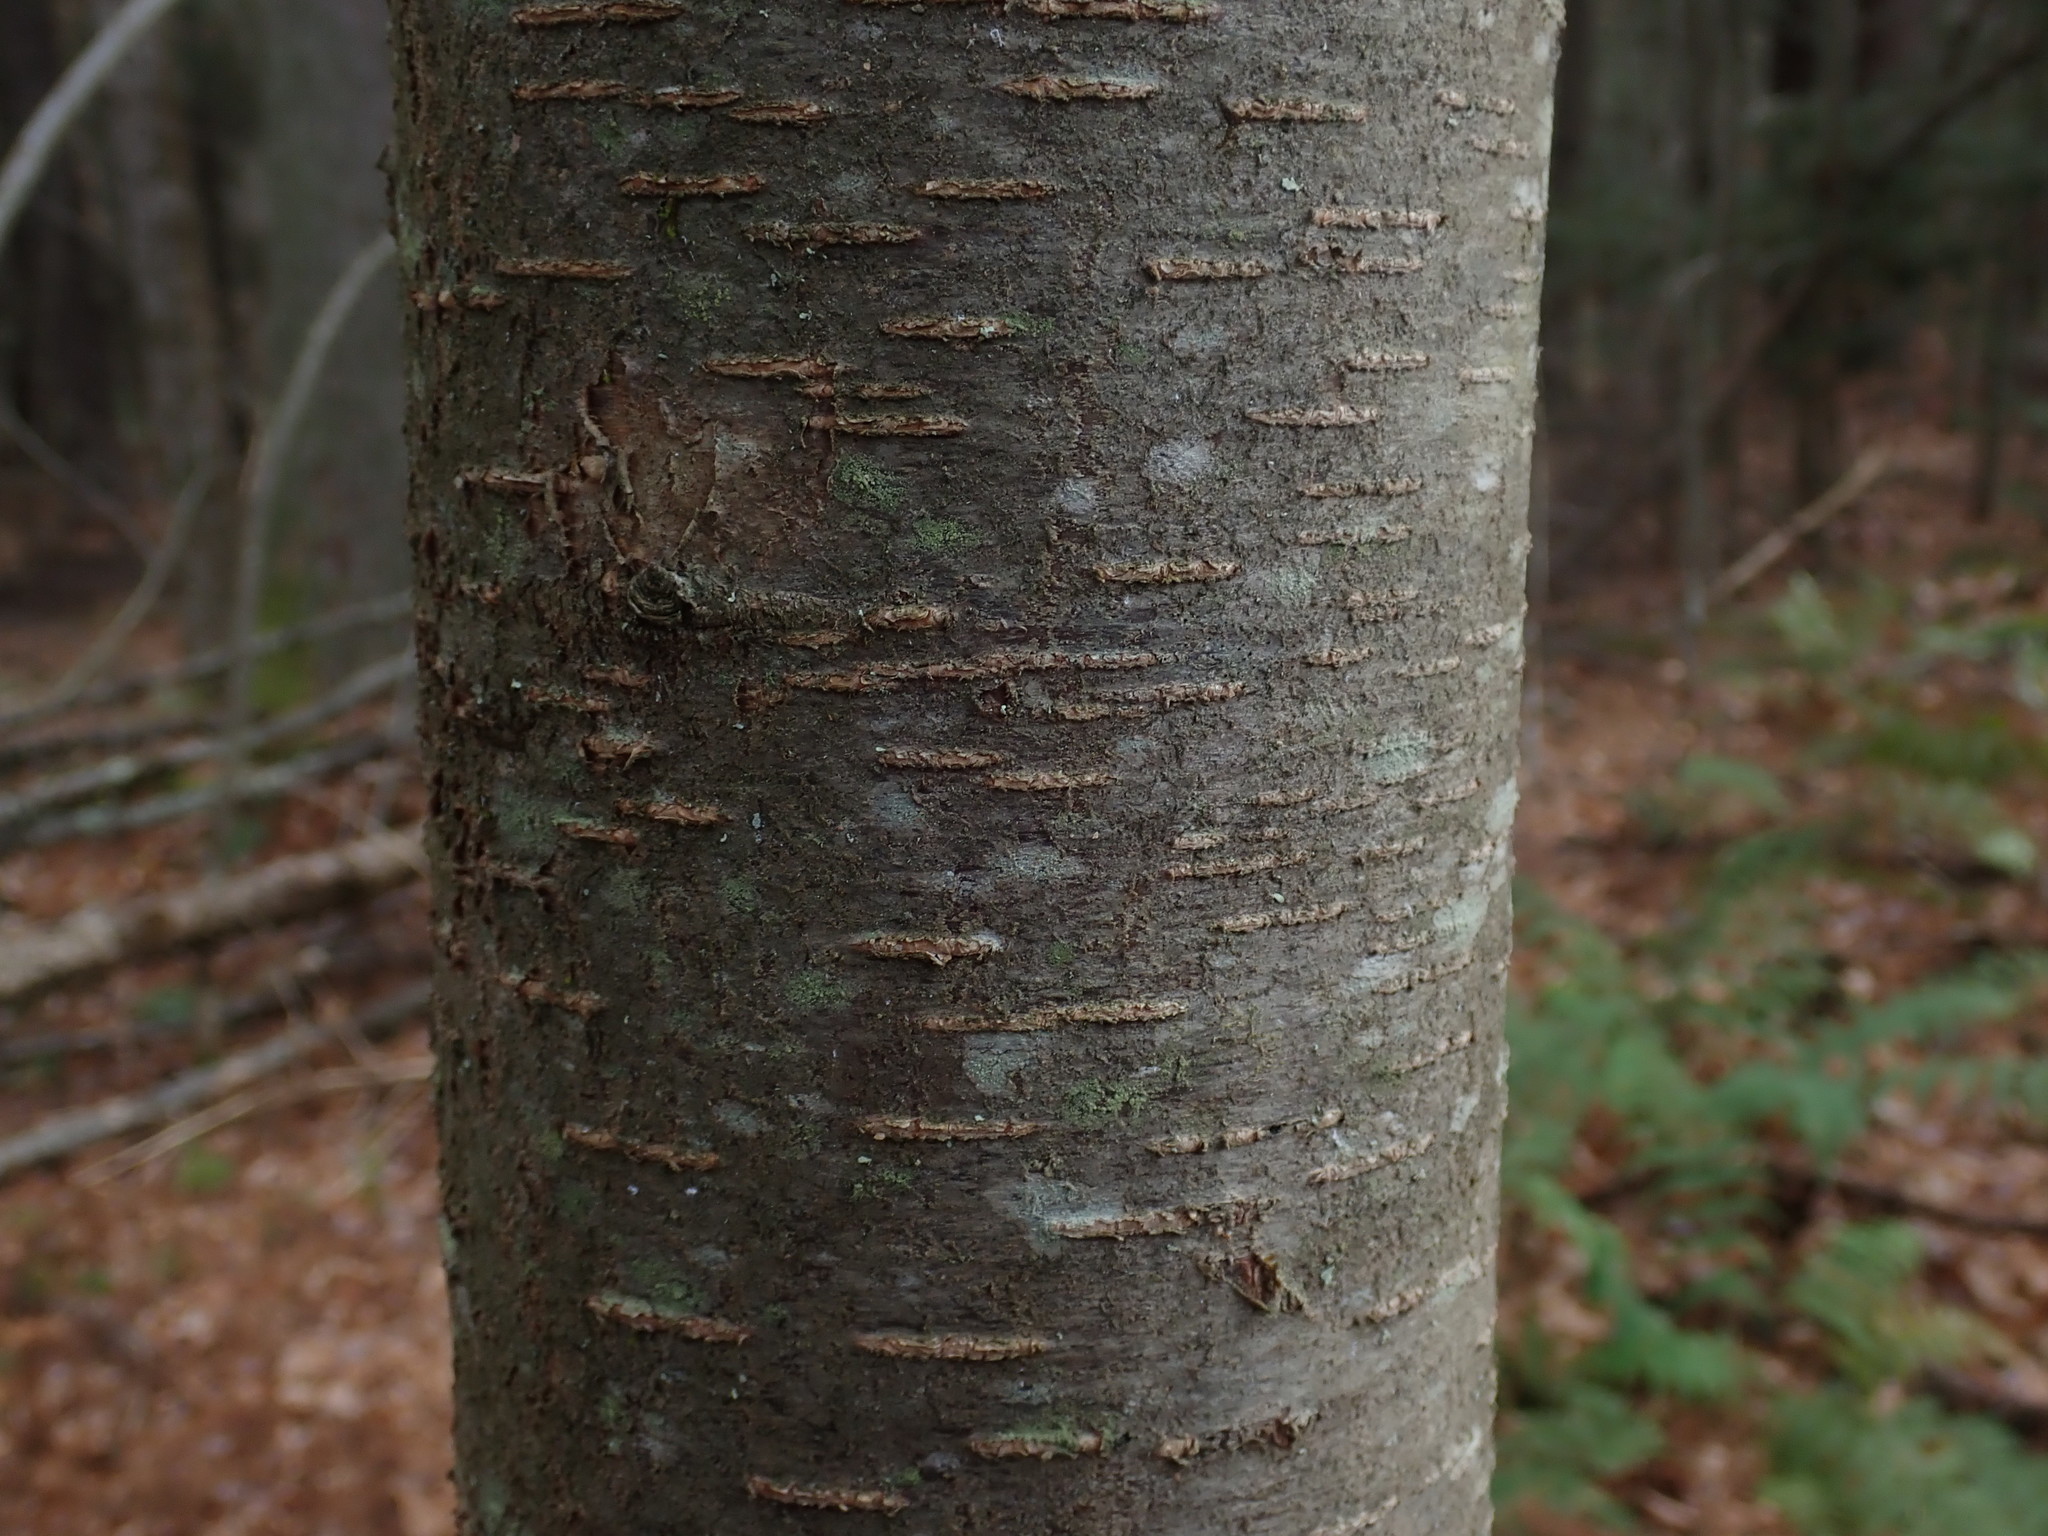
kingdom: Plantae
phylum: Tracheophyta
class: Magnoliopsida
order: Fagales
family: Betulaceae
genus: Betula
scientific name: Betula lenta
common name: Black birch
